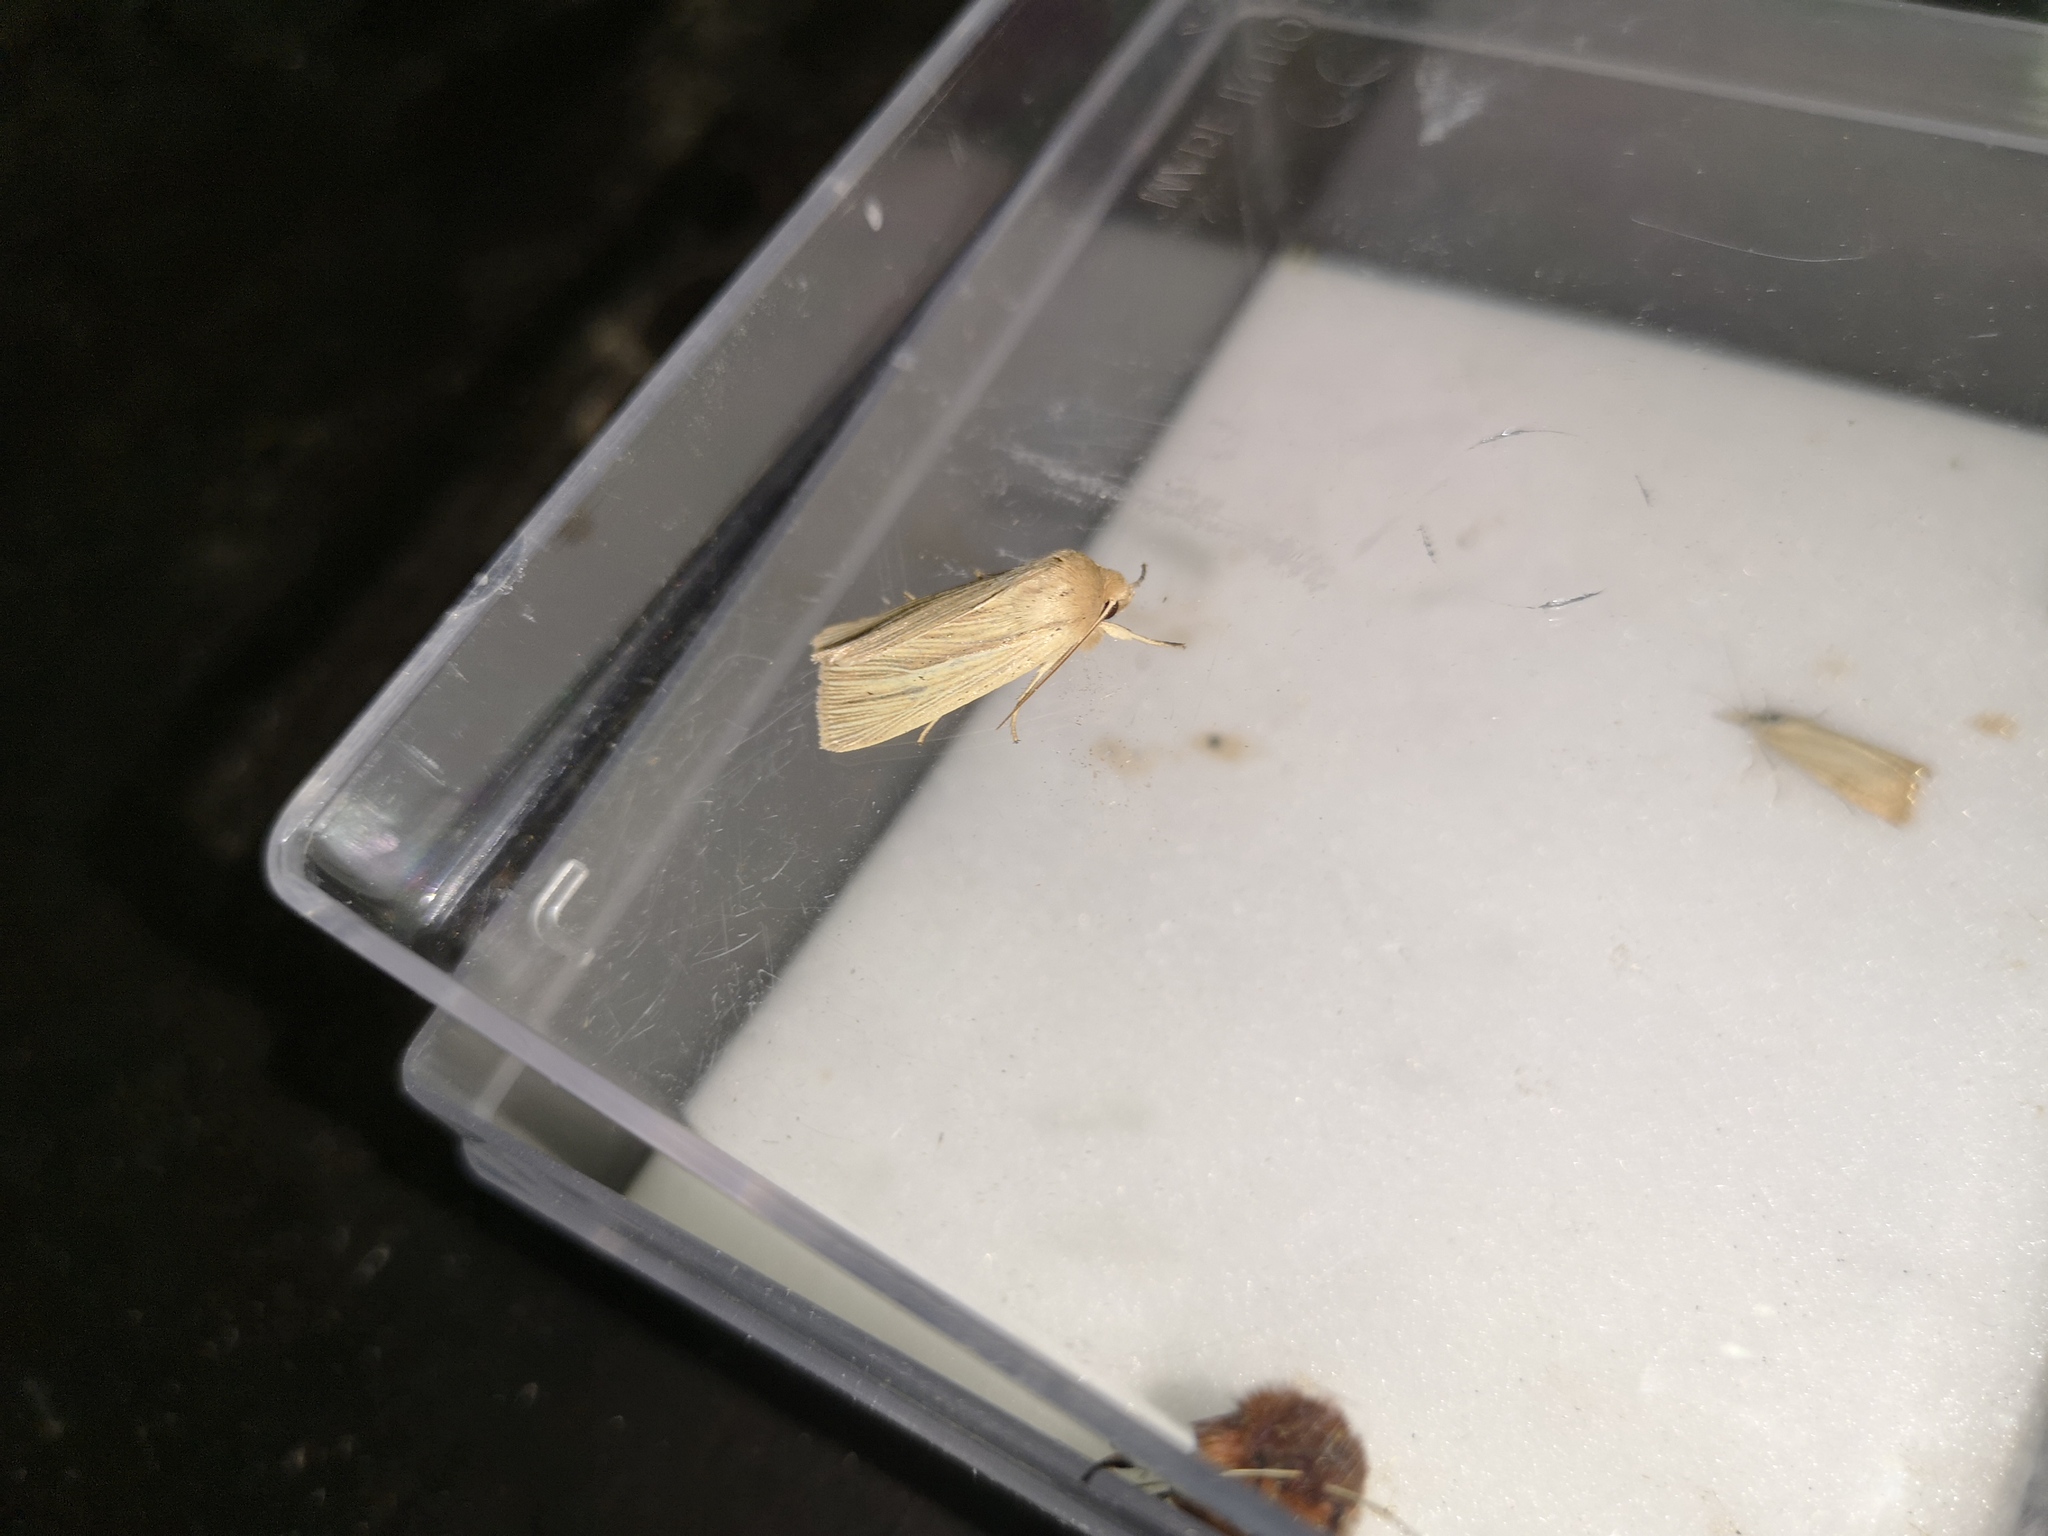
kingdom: Animalia
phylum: Arthropoda
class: Insecta
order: Lepidoptera
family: Noctuidae
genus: Mythimna
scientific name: Mythimna pallens
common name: Common wainscot
